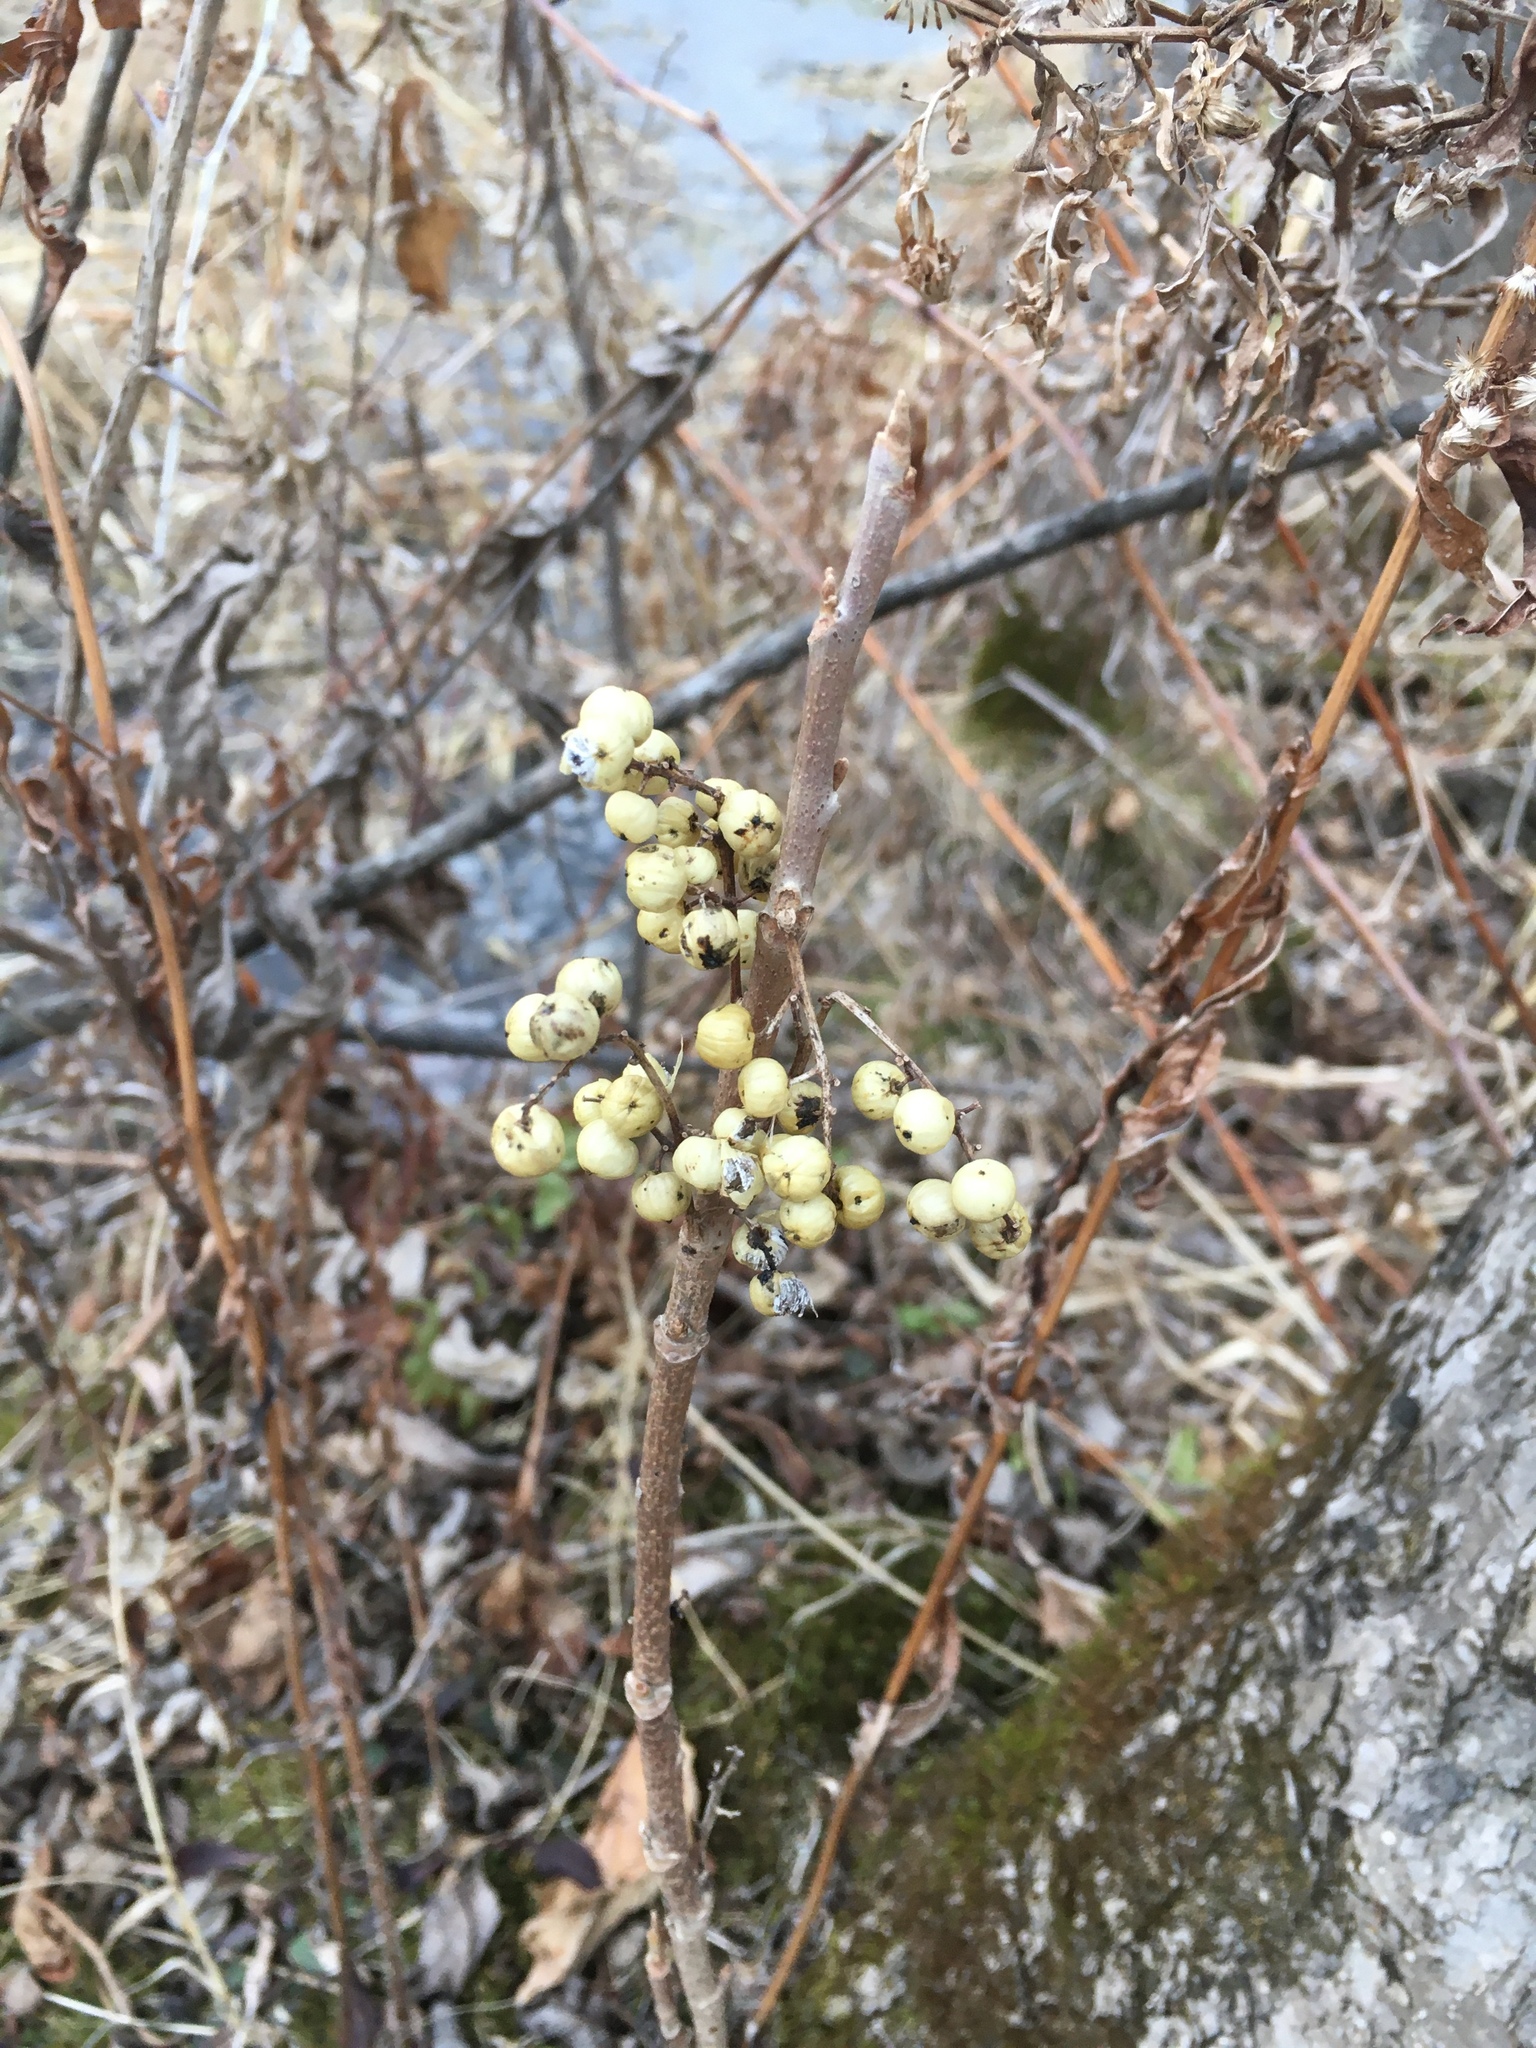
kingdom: Plantae
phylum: Tracheophyta
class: Magnoliopsida
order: Sapindales
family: Anacardiaceae
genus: Toxicodendron
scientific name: Toxicodendron rydbergii
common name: Rydberg's poison-ivy
